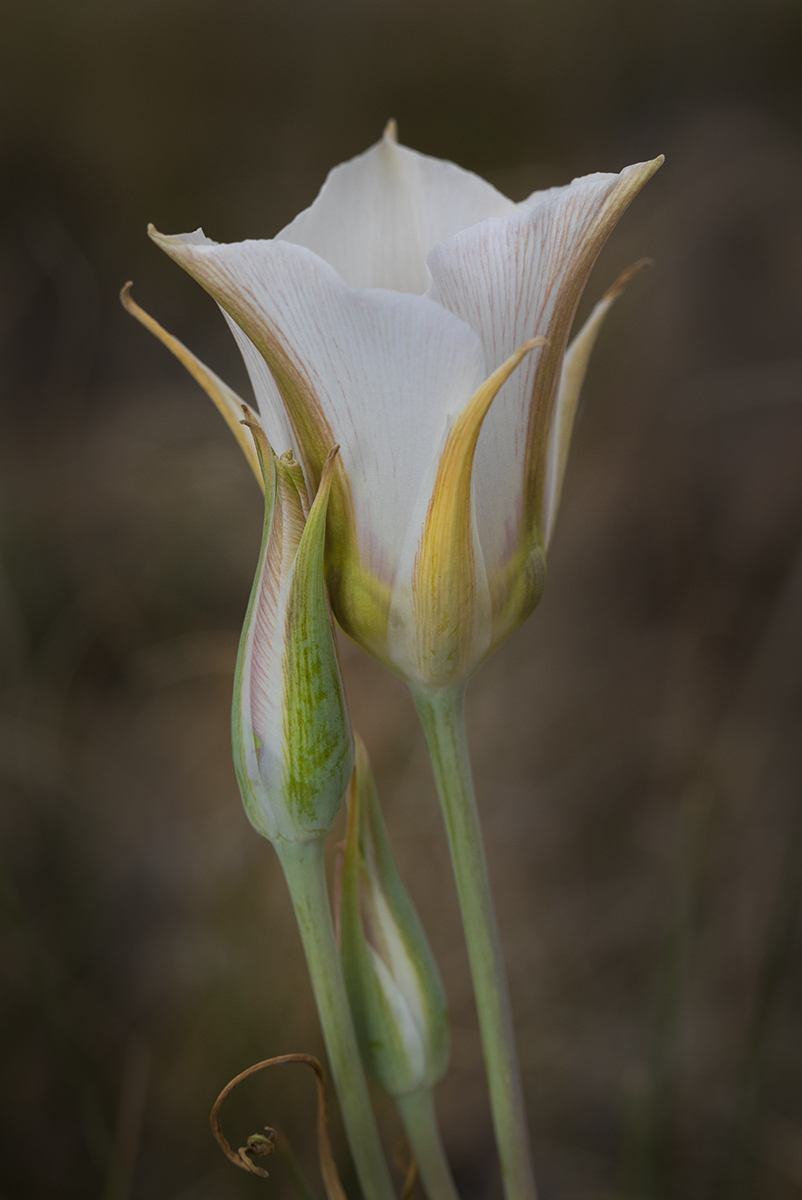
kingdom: Plantae
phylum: Tracheophyta
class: Liliopsida
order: Liliales
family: Liliaceae
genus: Calochortus
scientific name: Calochortus nuttallii
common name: Sego-lily
